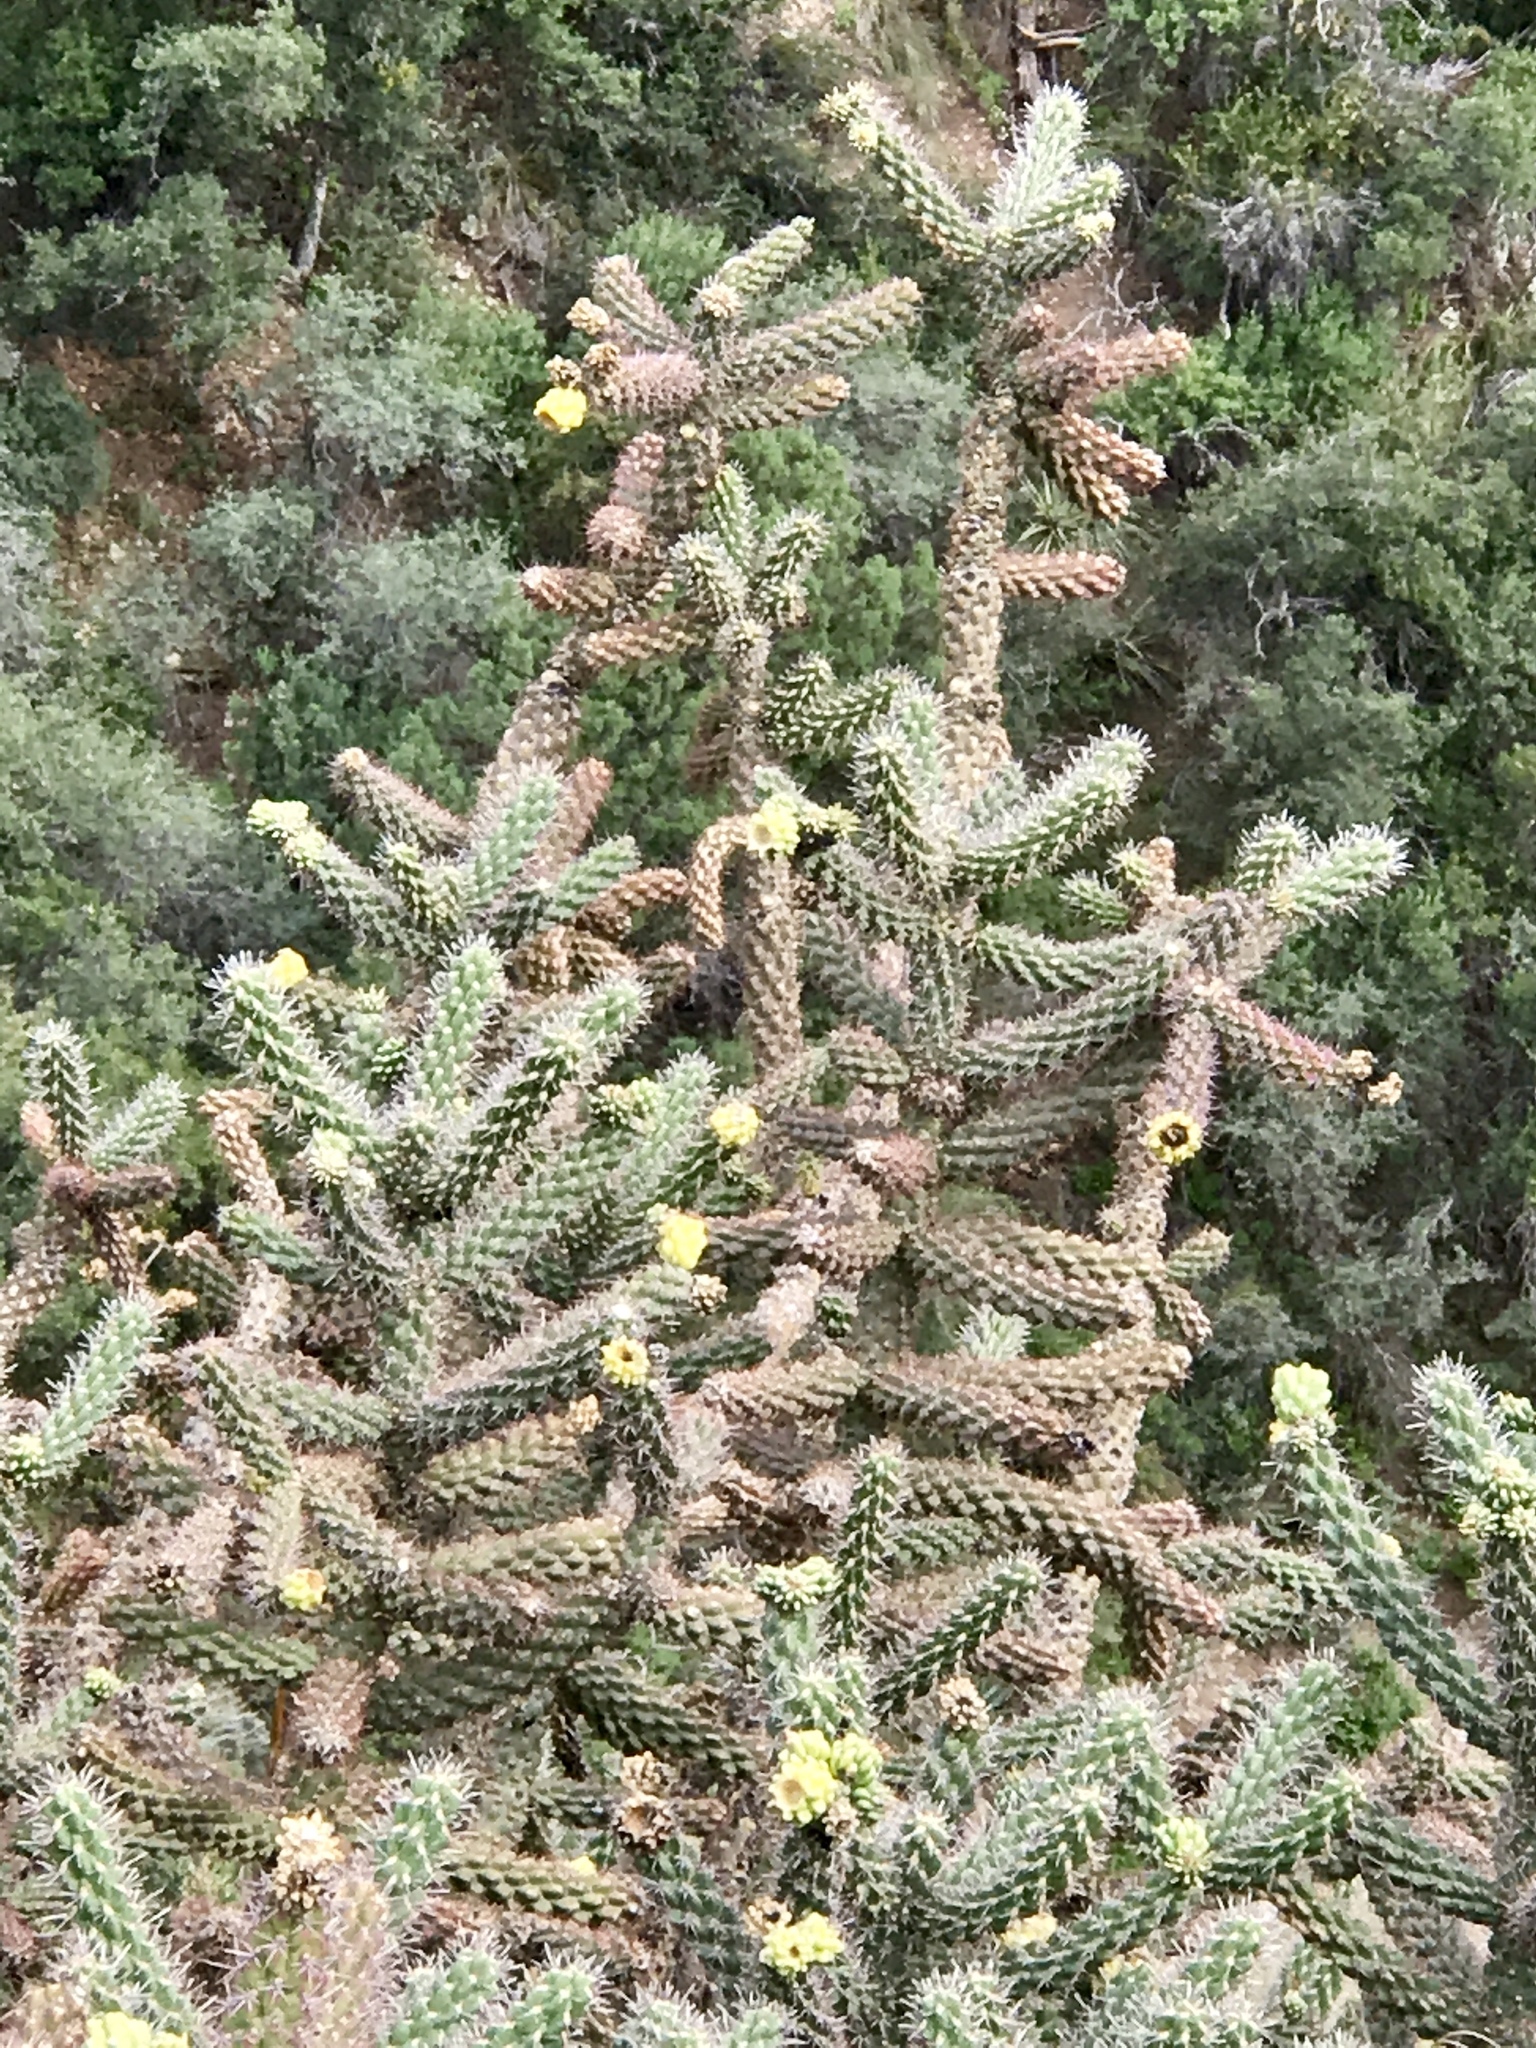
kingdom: Plantae
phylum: Tracheophyta
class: Magnoliopsida
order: Caryophyllales
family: Cactaceae
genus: Cylindropuntia
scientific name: Cylindropuntia imbricata
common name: Candelabrum cactus
